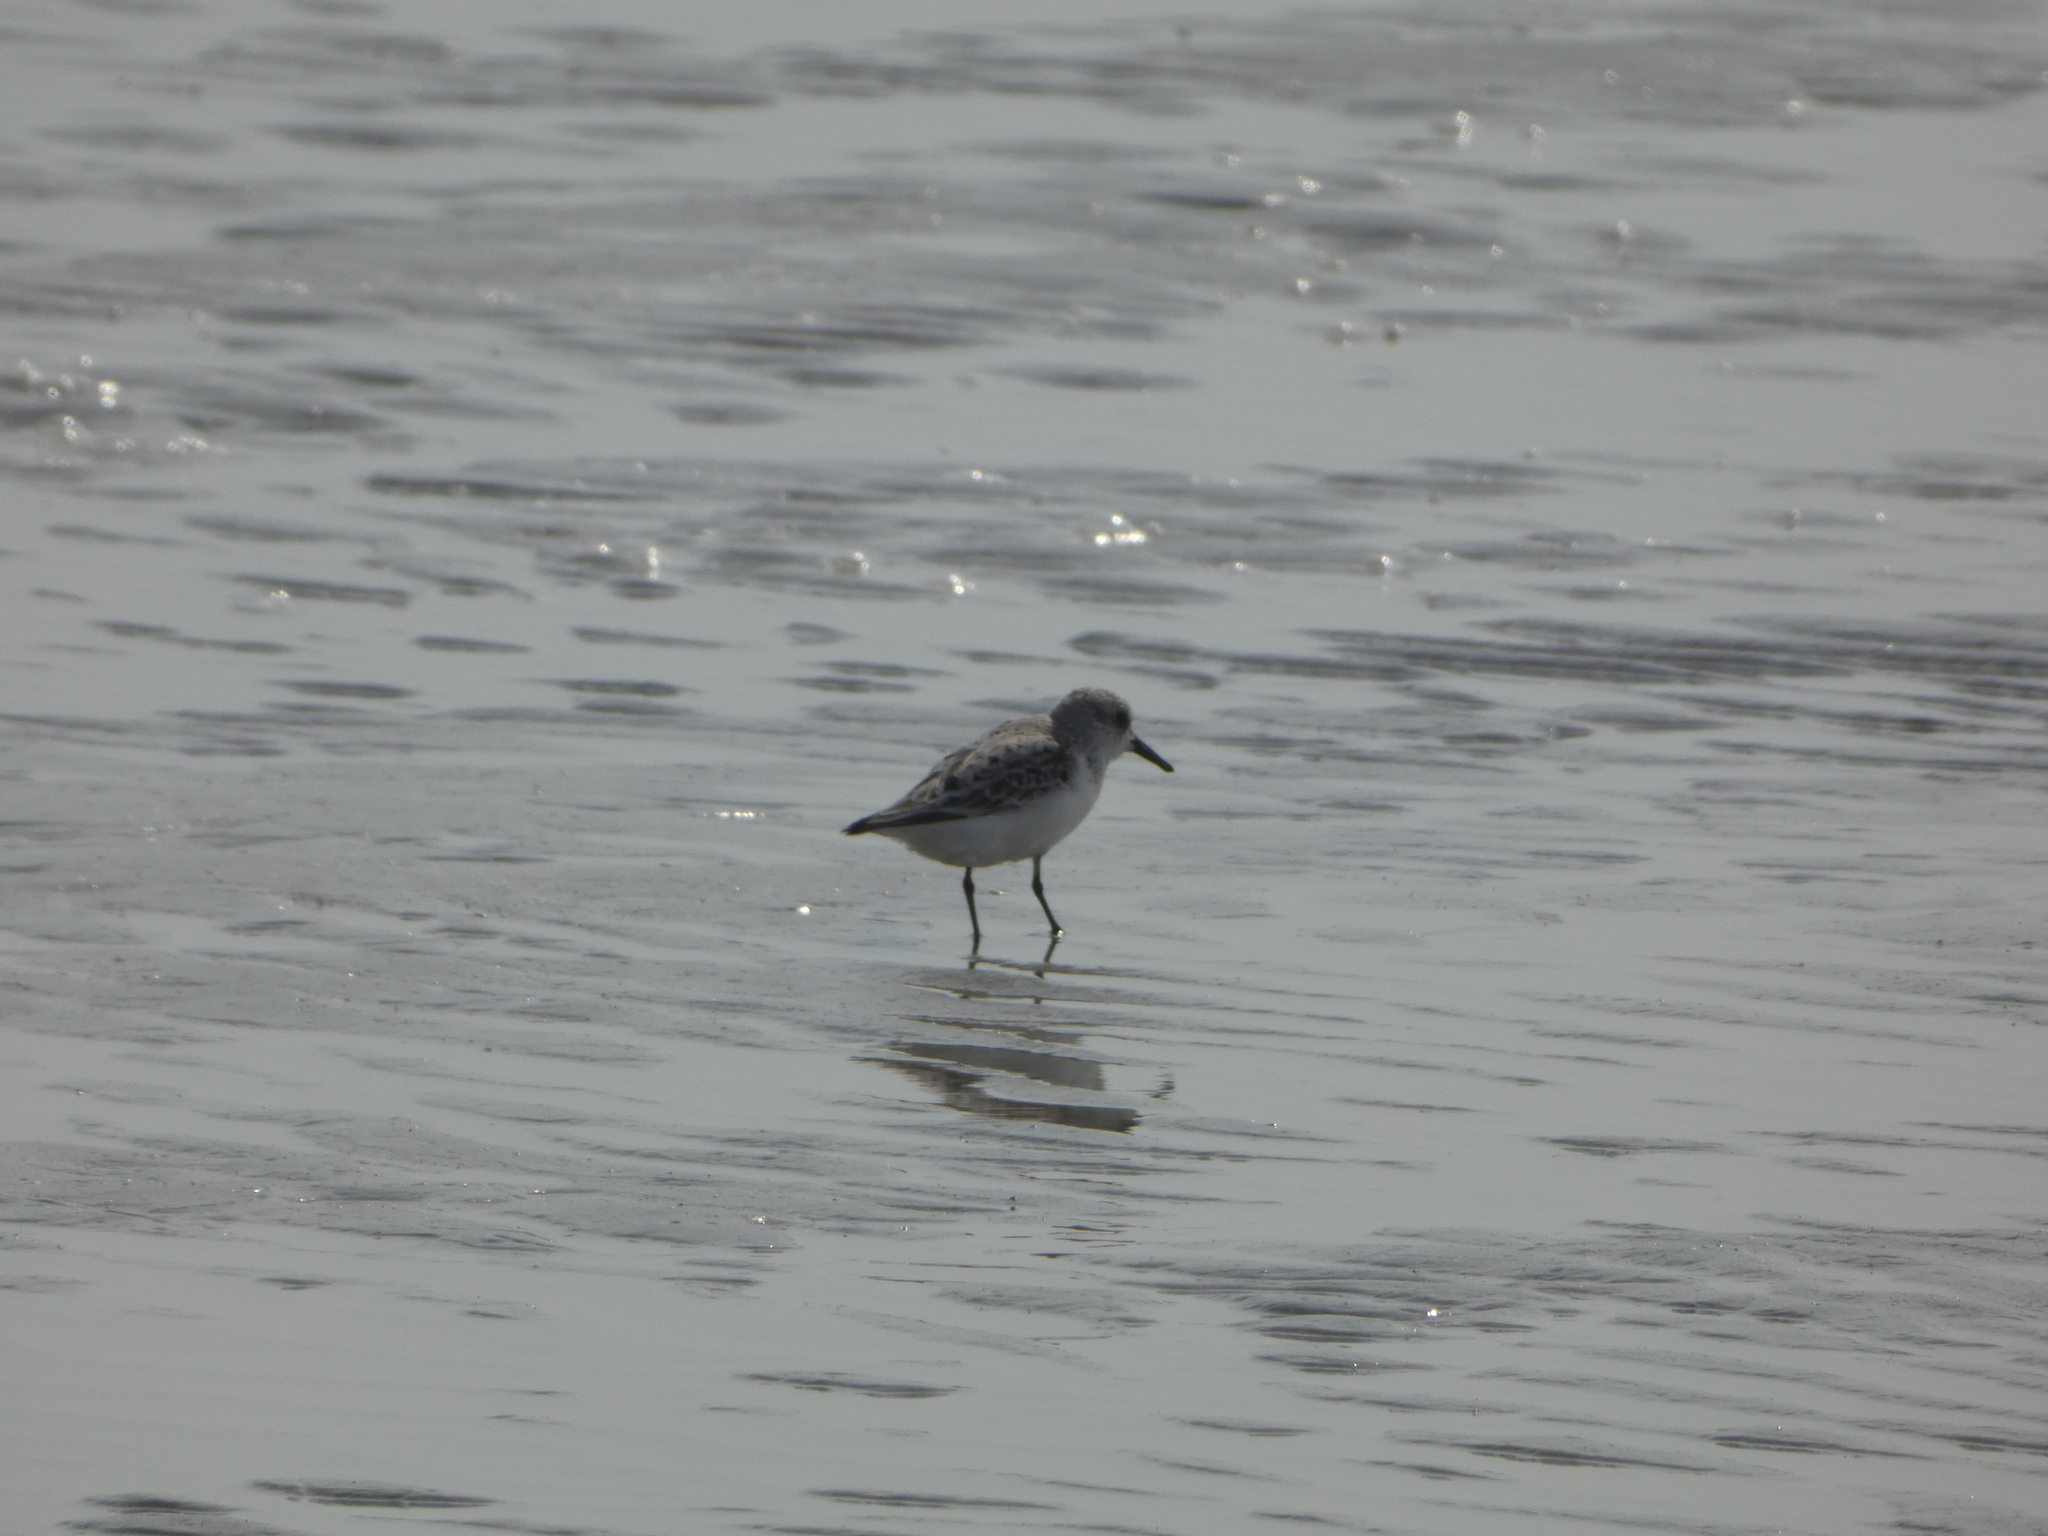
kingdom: Animalia
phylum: Chordata
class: Aves
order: Charadriiformes
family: Scolopacidae
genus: Calidris
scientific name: Calidris alba
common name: Sanderling
